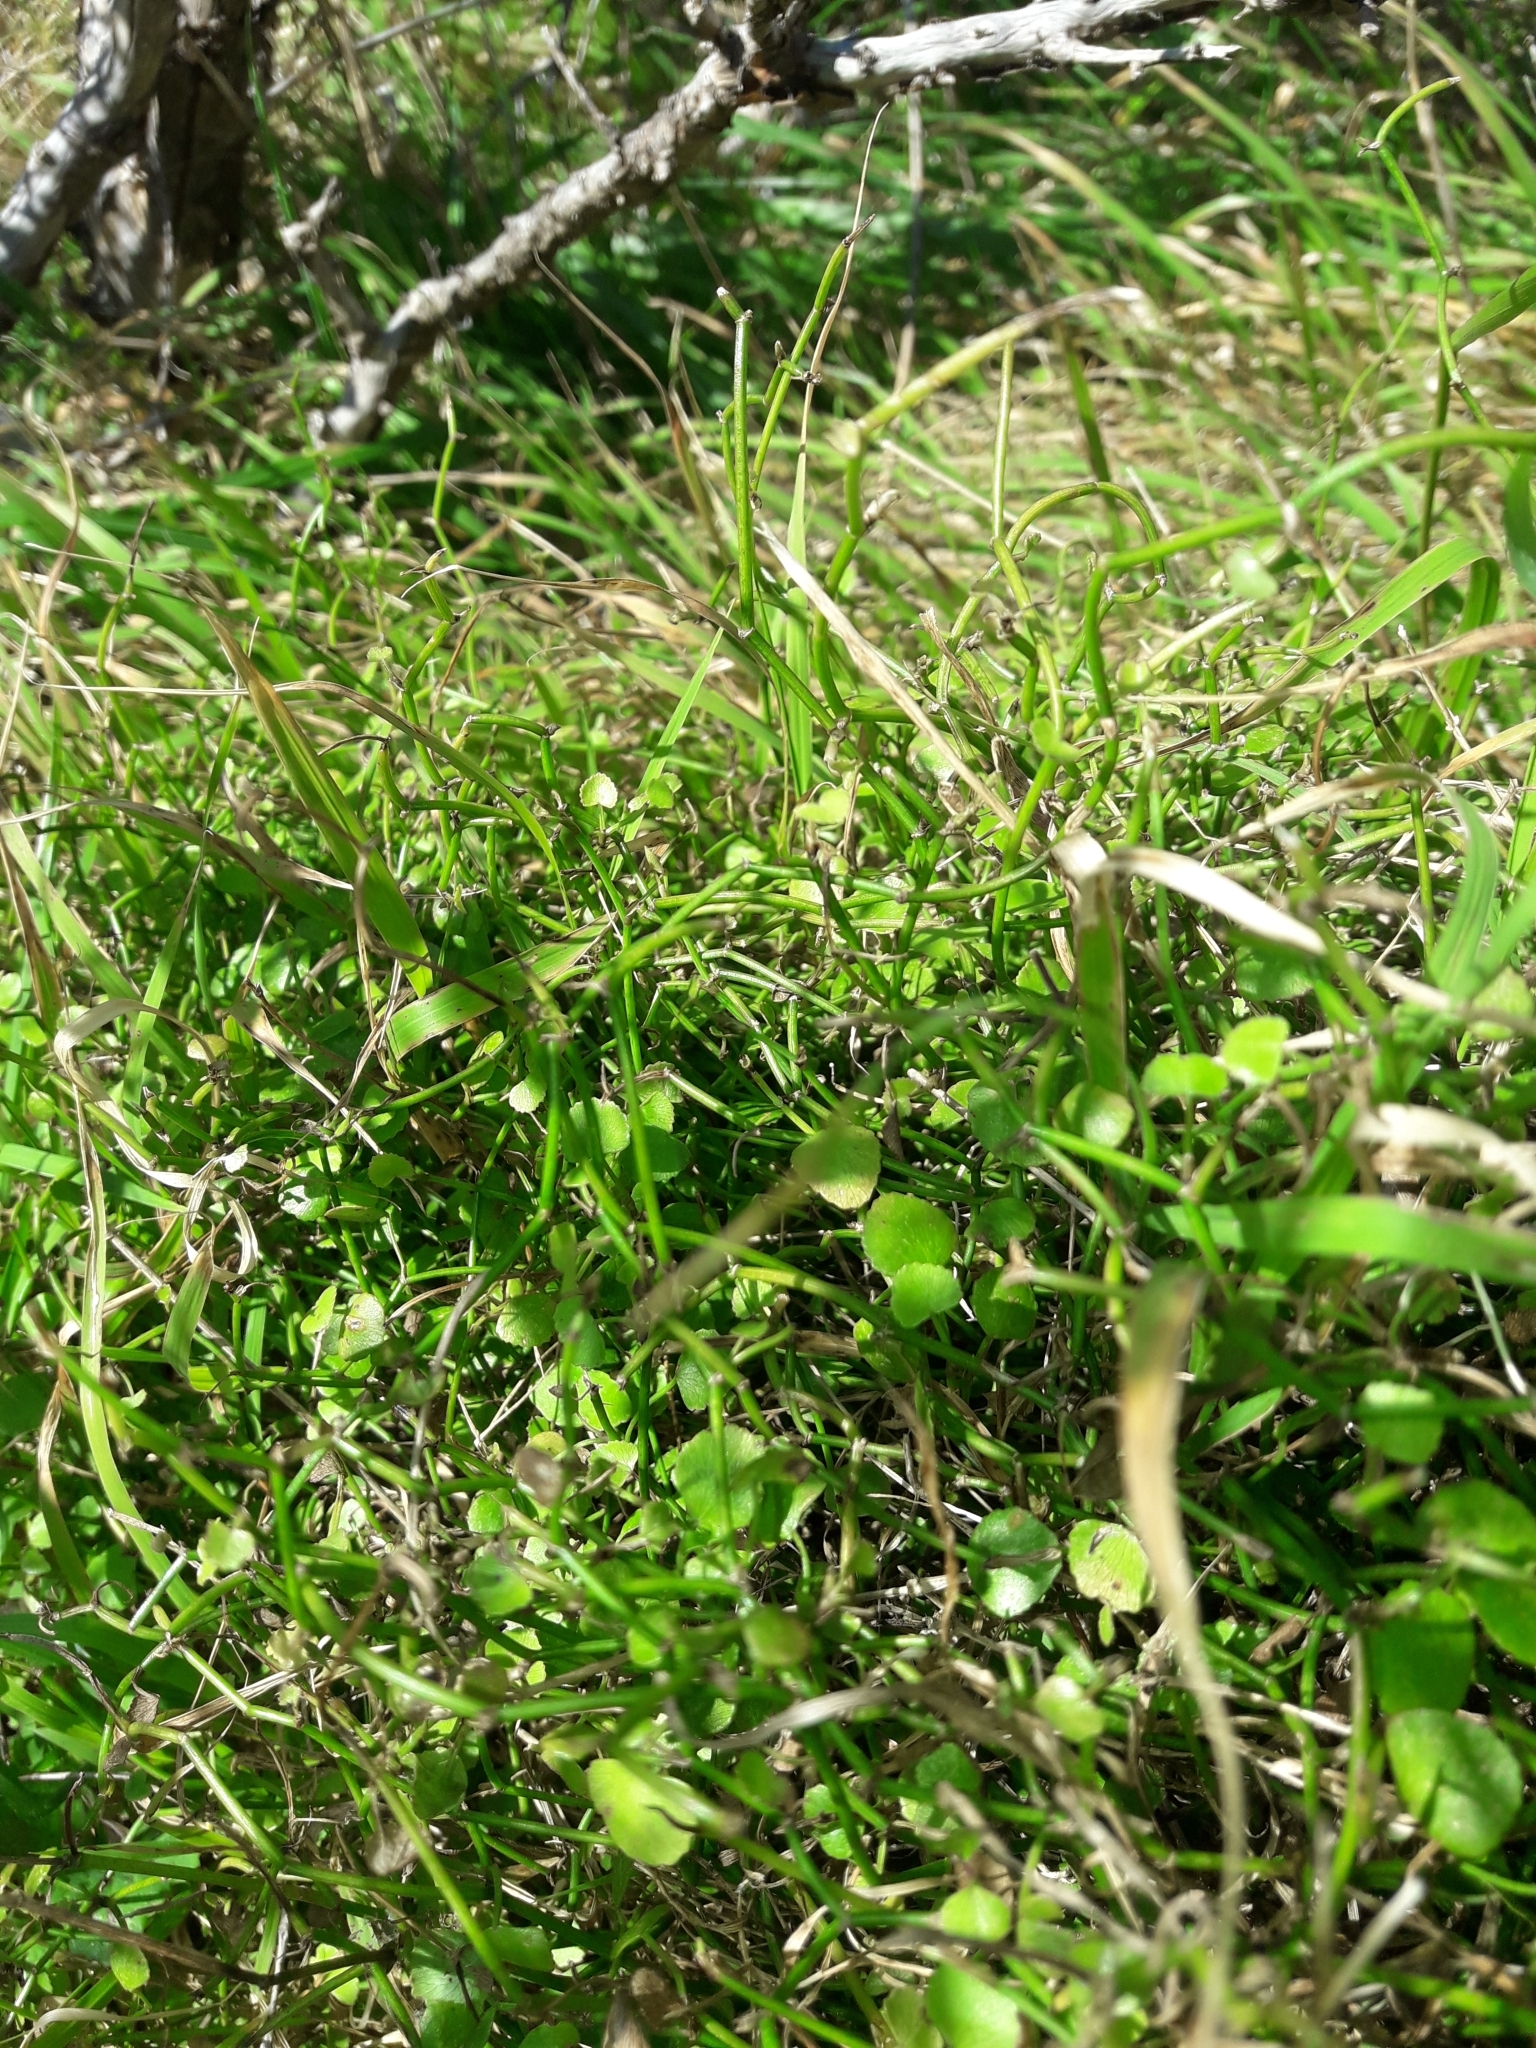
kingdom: Plantae
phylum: Tracheophyta
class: Magnoliopsida
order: Apiales
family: Apiaceae
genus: Scandia
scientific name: Scandia geniculata
